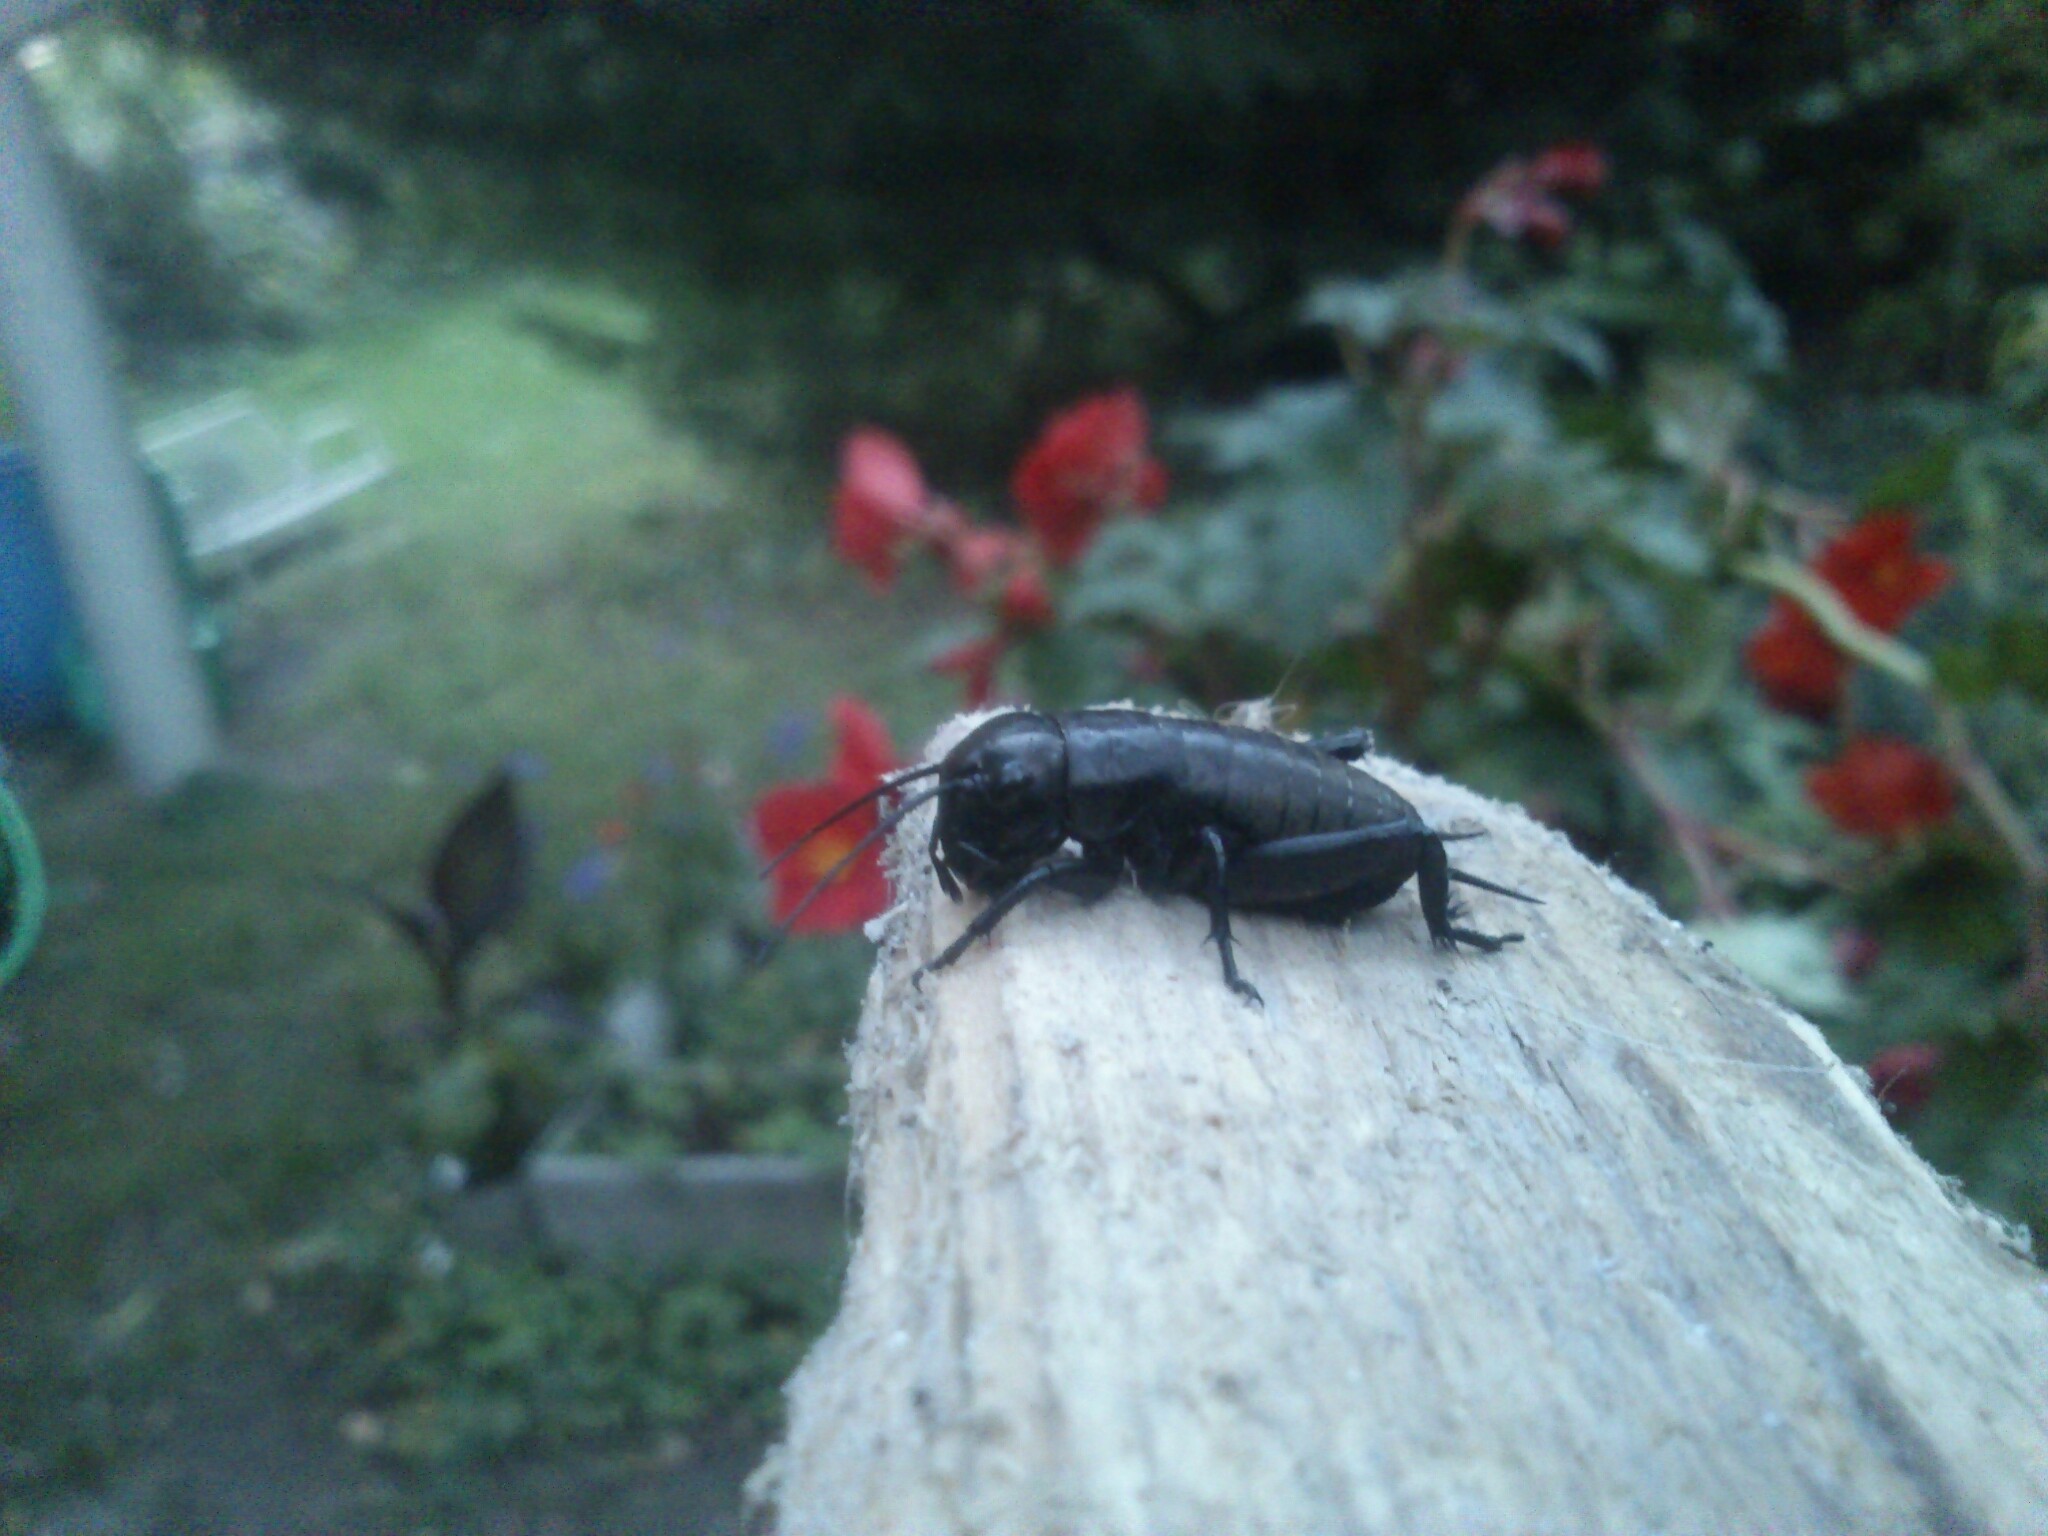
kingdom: Animalia
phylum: Arthropoda
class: Insecta
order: Orthoptera
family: Gryllidae
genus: Gryllus
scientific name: Gryllus campestris
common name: Field cricket
